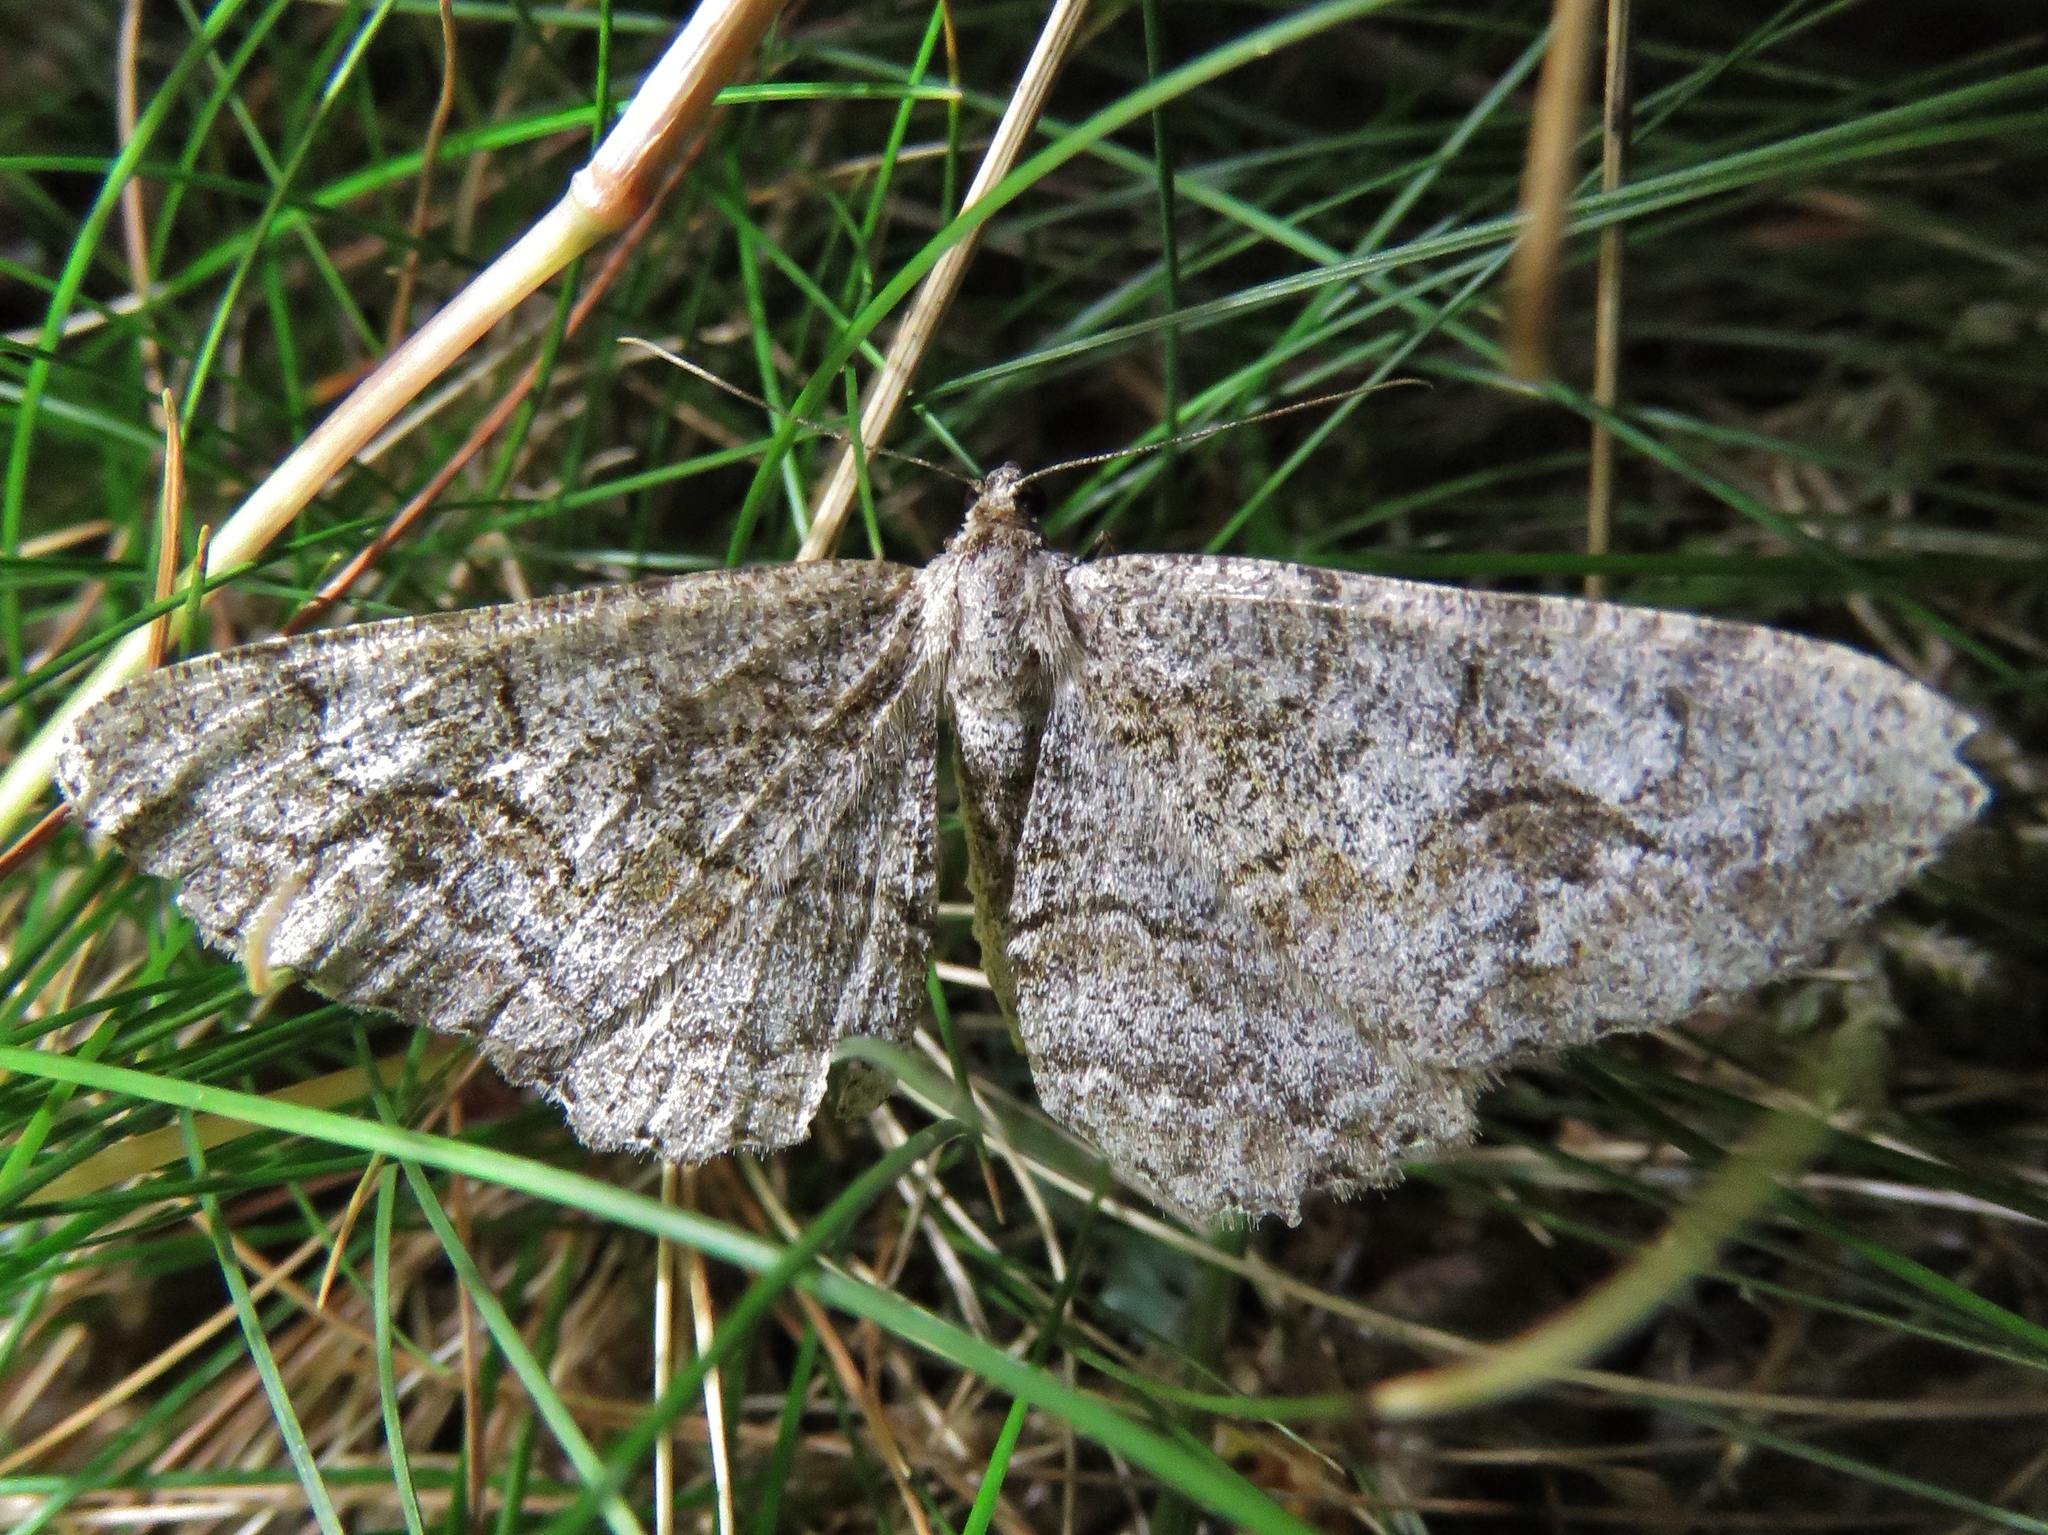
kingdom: Animalia
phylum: Arthropoda
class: Insecta
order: Lepidoptera
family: Geometridae
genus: Alcis
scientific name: Alcis repandata
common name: Mottled beauty
